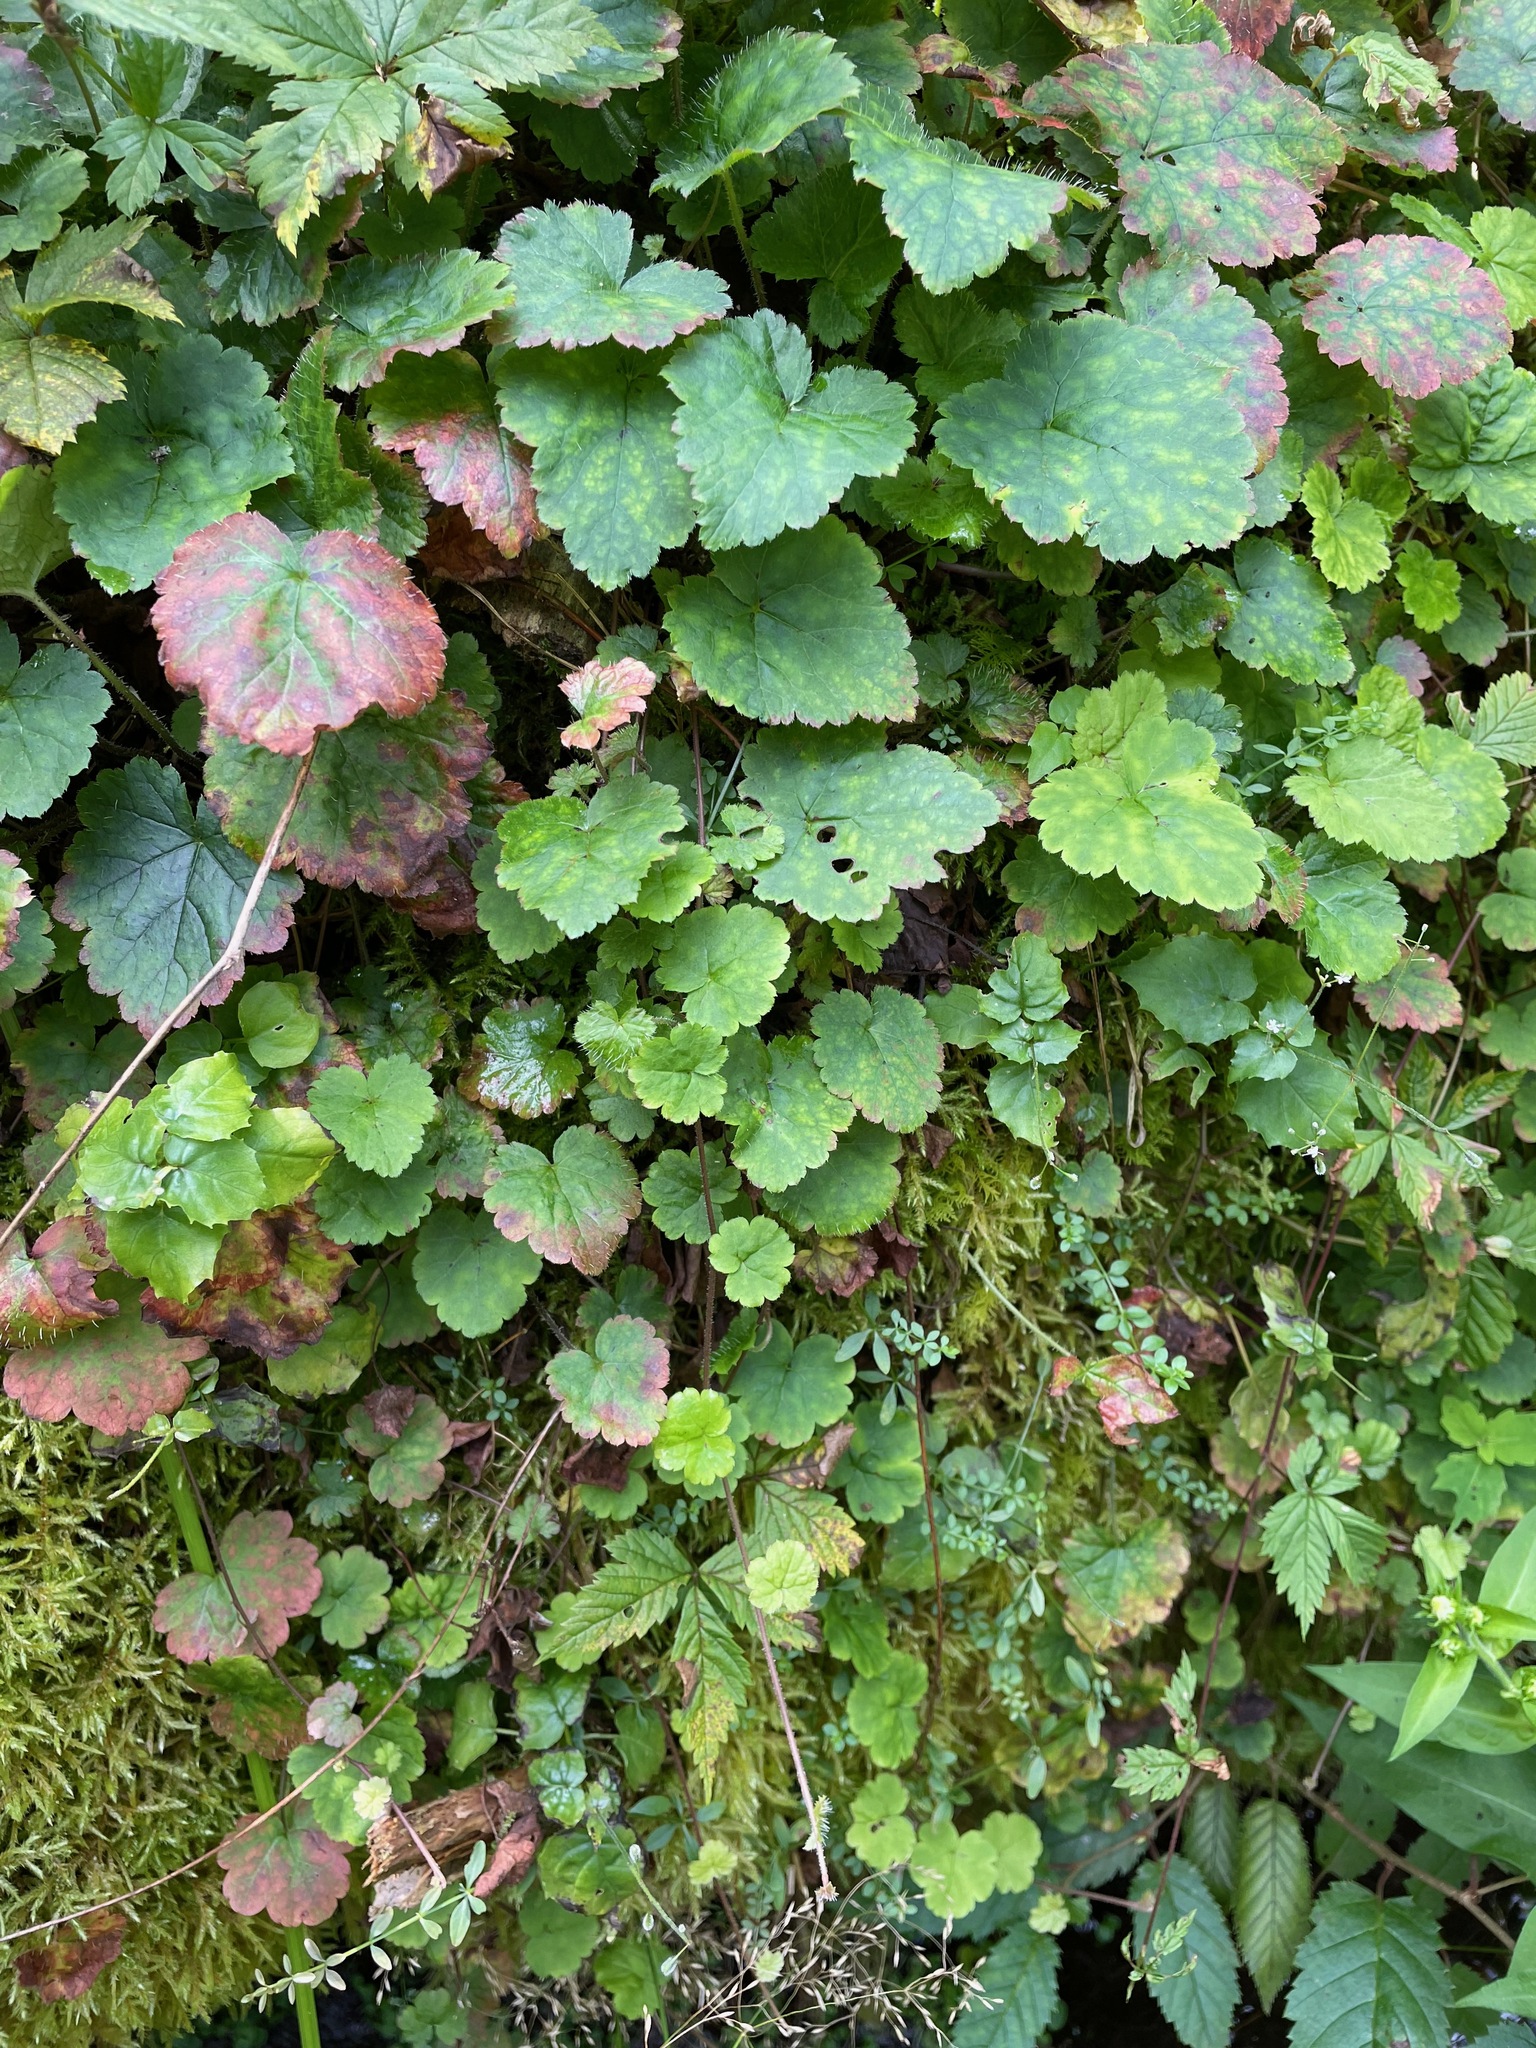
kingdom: Plantae
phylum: Tracheophyta
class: Magnoliopsida
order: Saxifragales
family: Saxifragaceae
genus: Tiarella
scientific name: Tiarella stolonifera
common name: Stoloniferous foamflower
